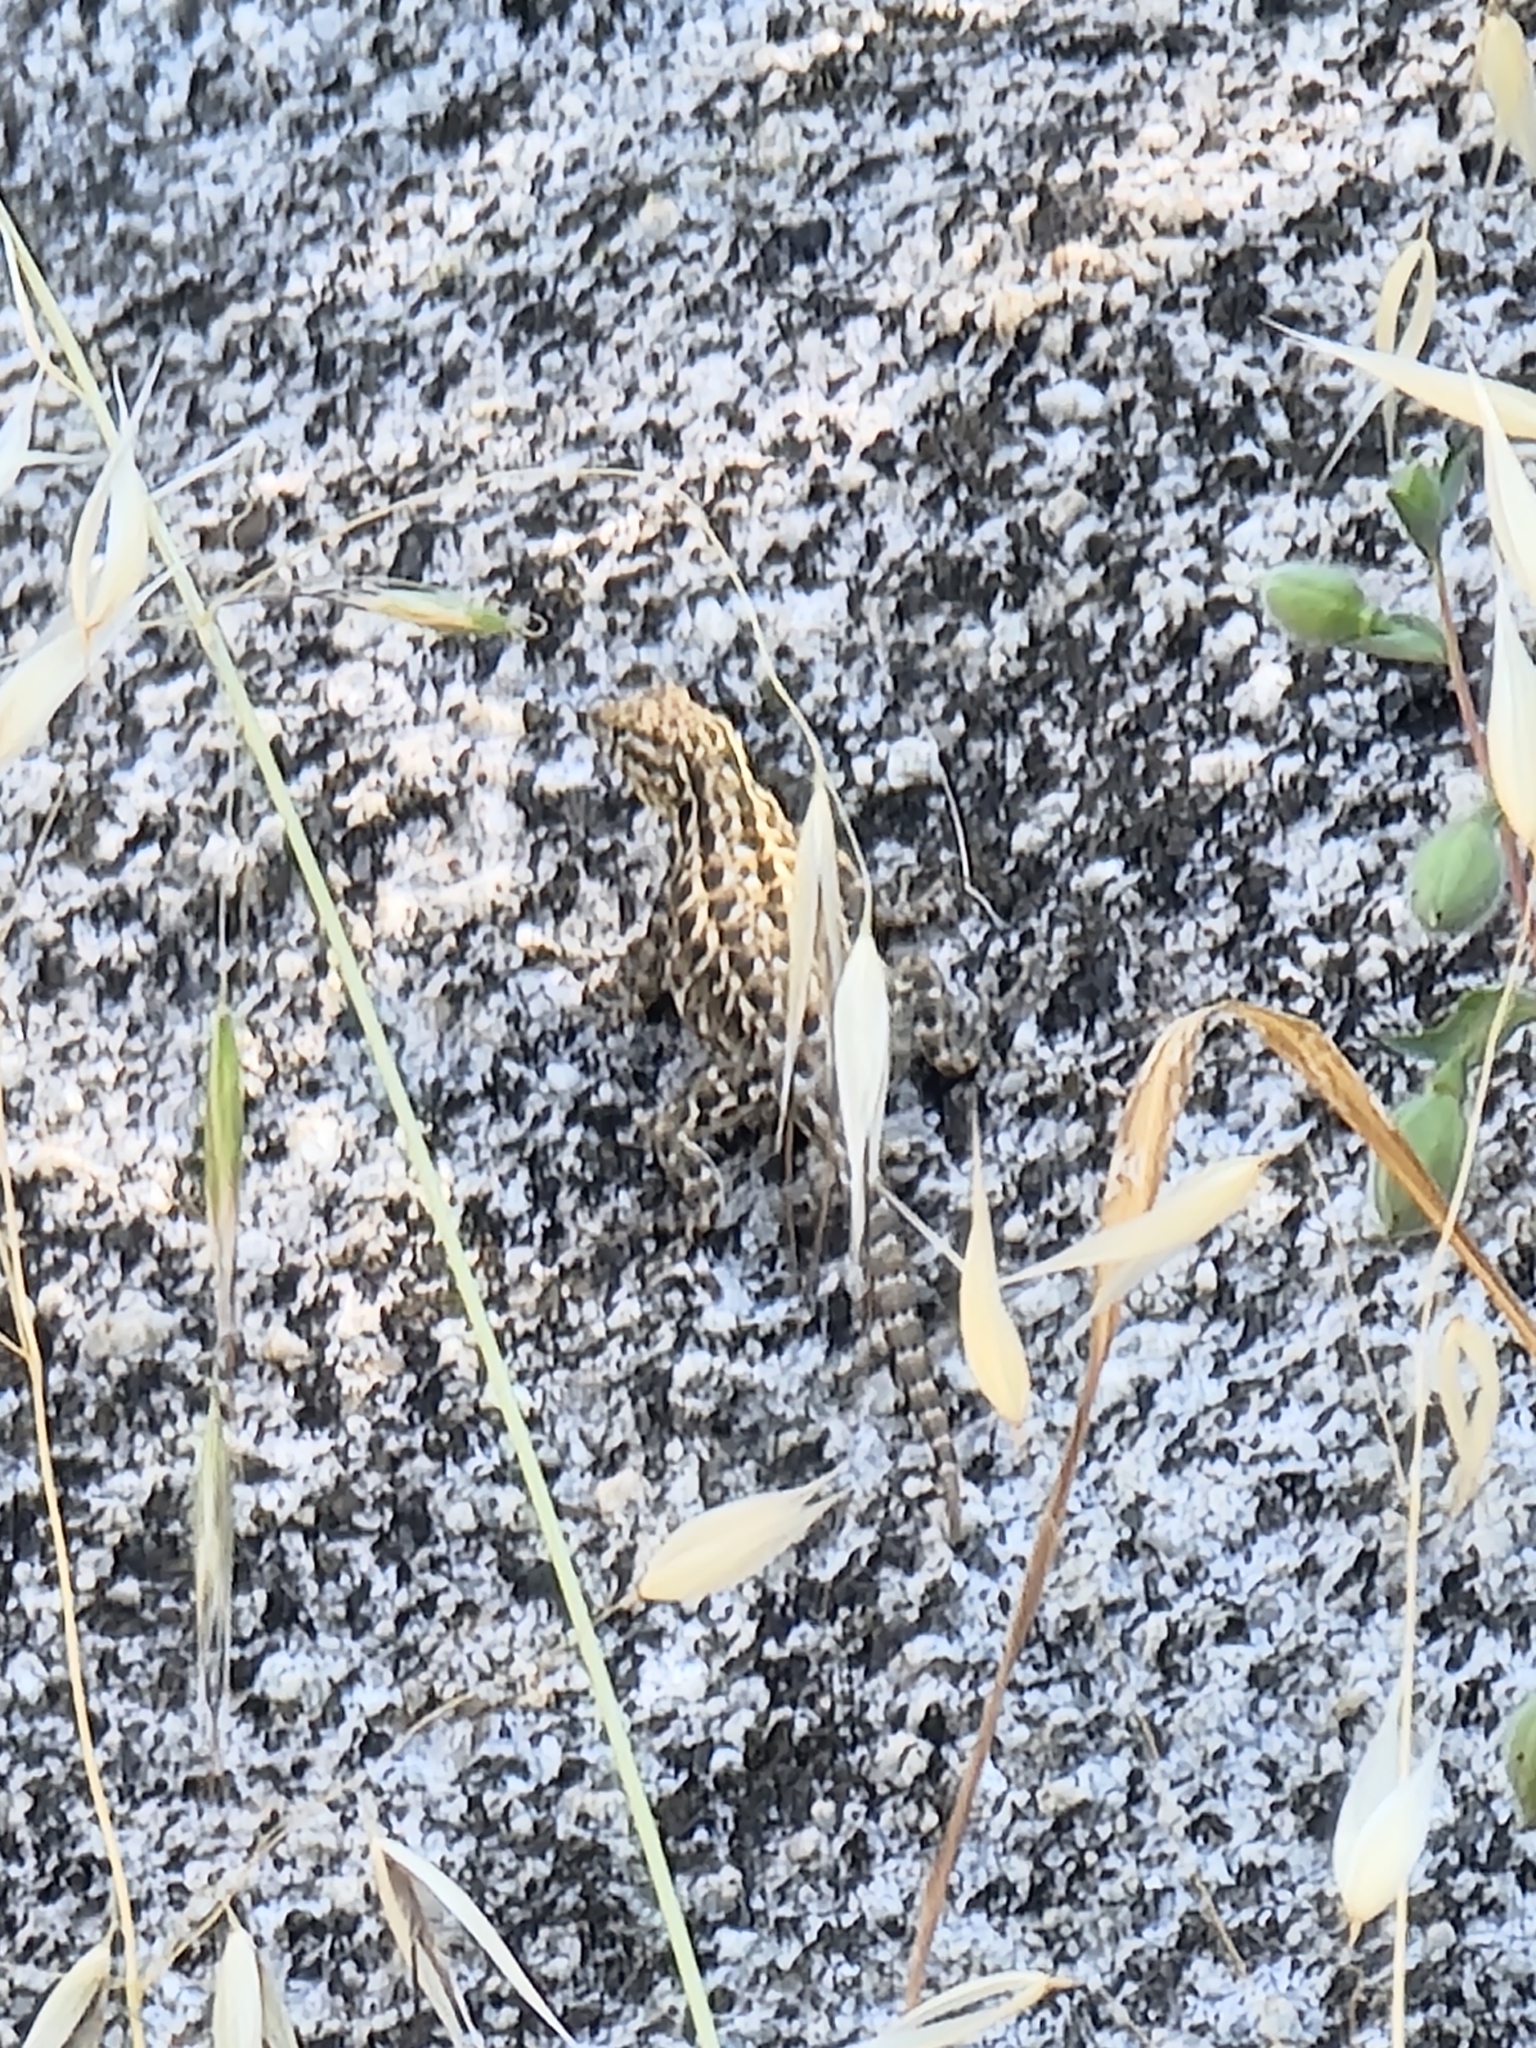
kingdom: Animalia
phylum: Chordata
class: Squamata
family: Phrynosomatidae
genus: Uta
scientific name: Uta stansburiana
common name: Side-blotched lizard
